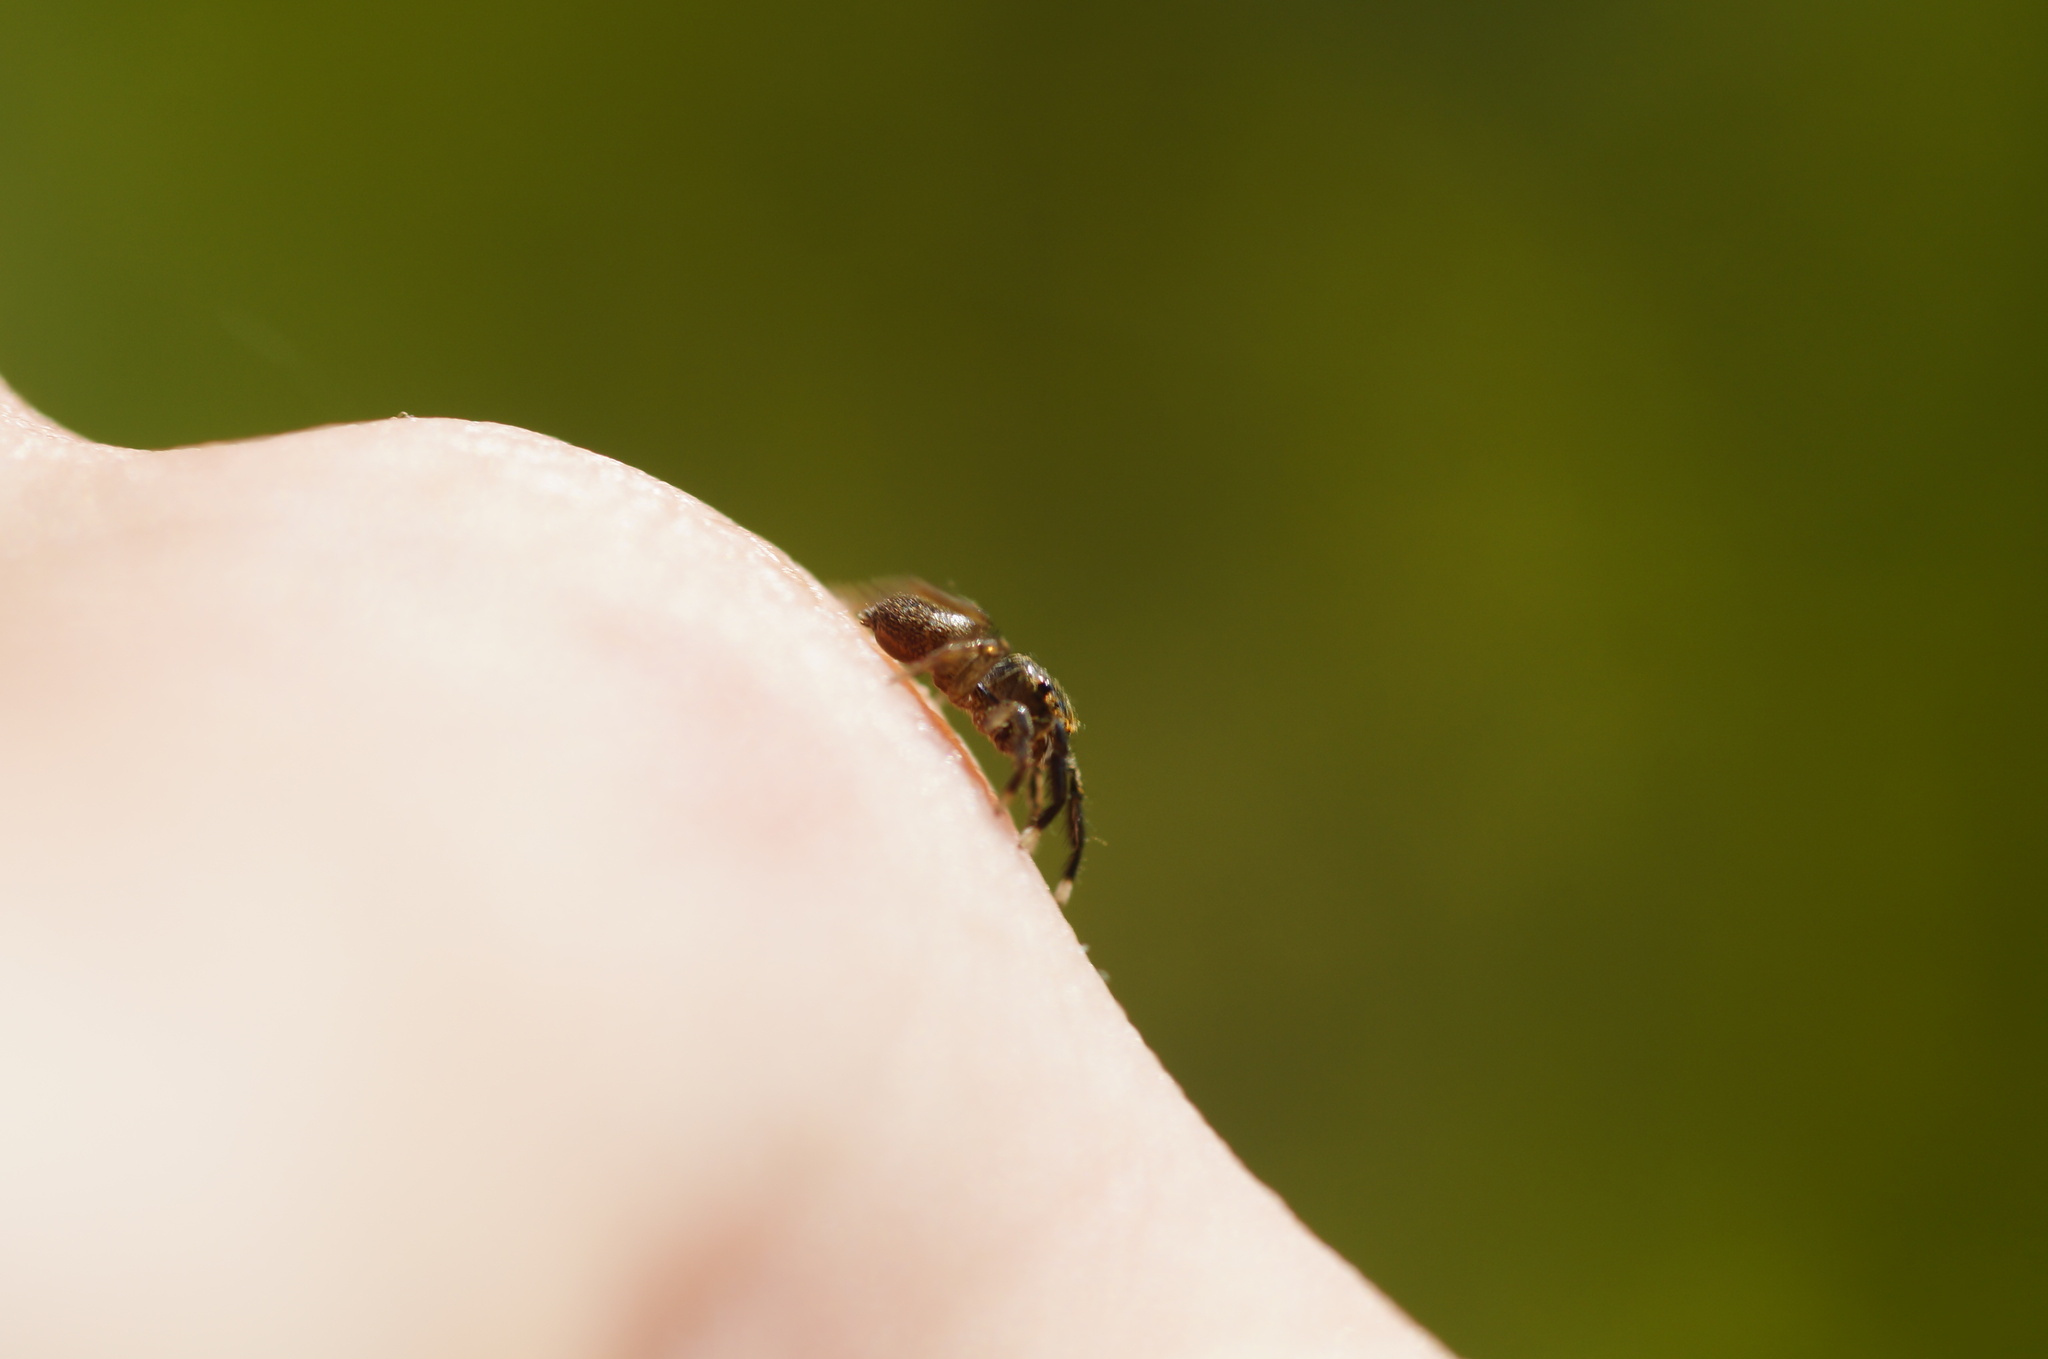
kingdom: Animalia
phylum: Arthropoda
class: Arachnida
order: Araneae
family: Salticidae
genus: Euophrys
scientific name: Euophrys frontalis
